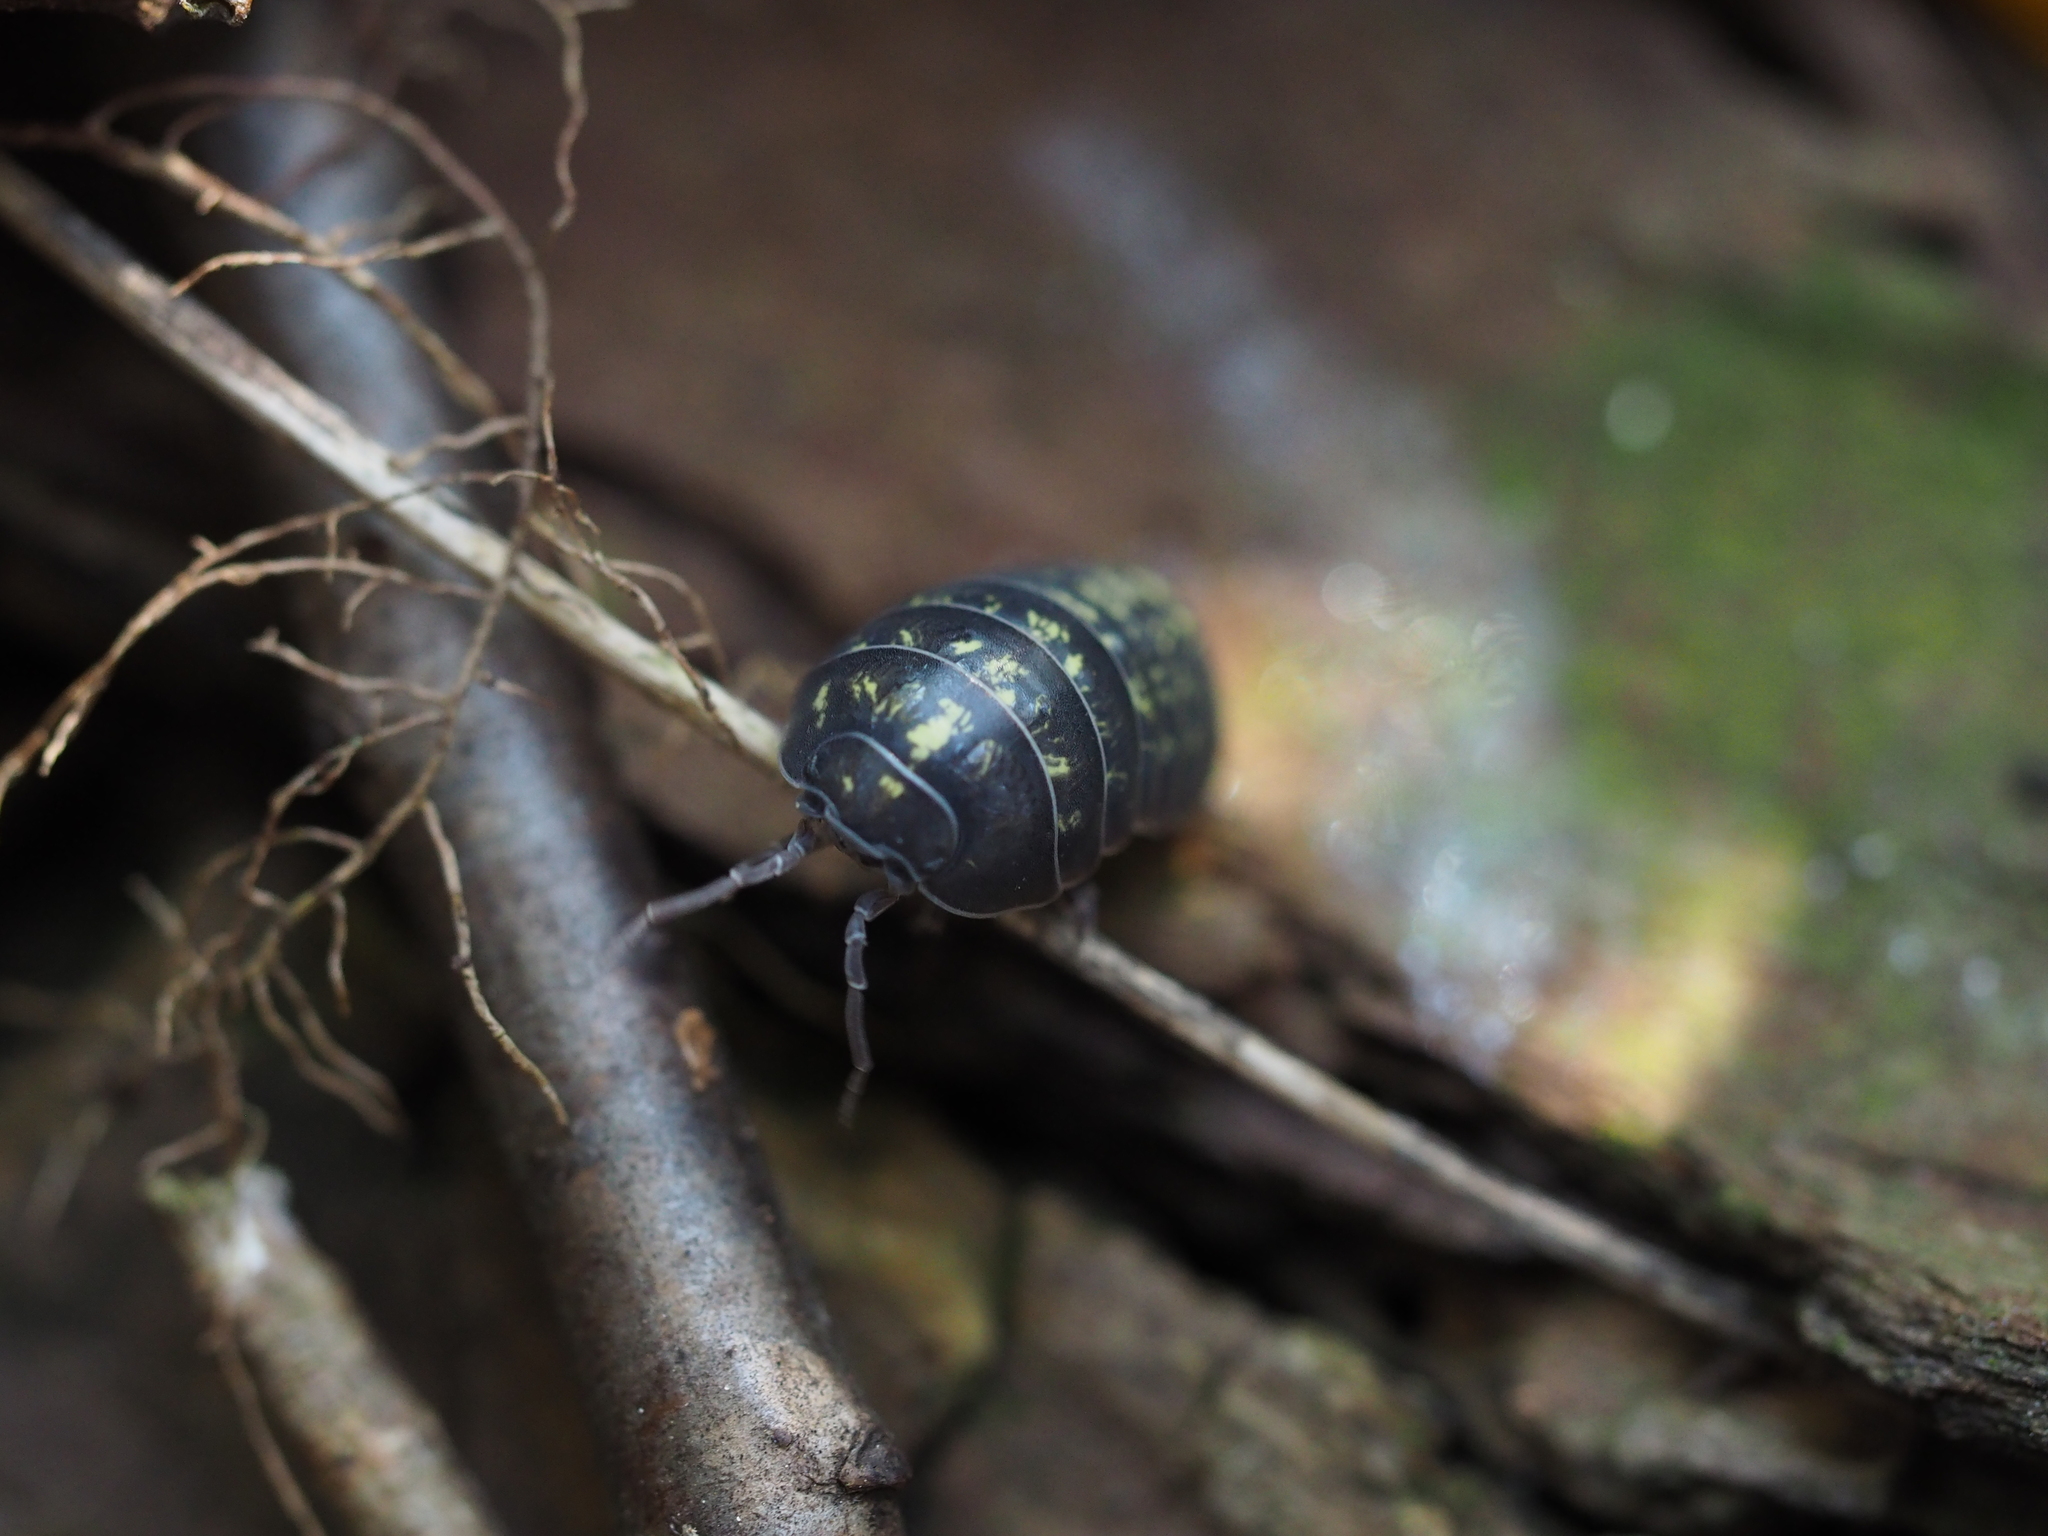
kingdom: Animalia
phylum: Arthropoda
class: Malacostraca
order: Isopoda
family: Armadillidiidae
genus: Armadillidium
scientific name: Armadillidium vulgare
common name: Common pill woodlouse
